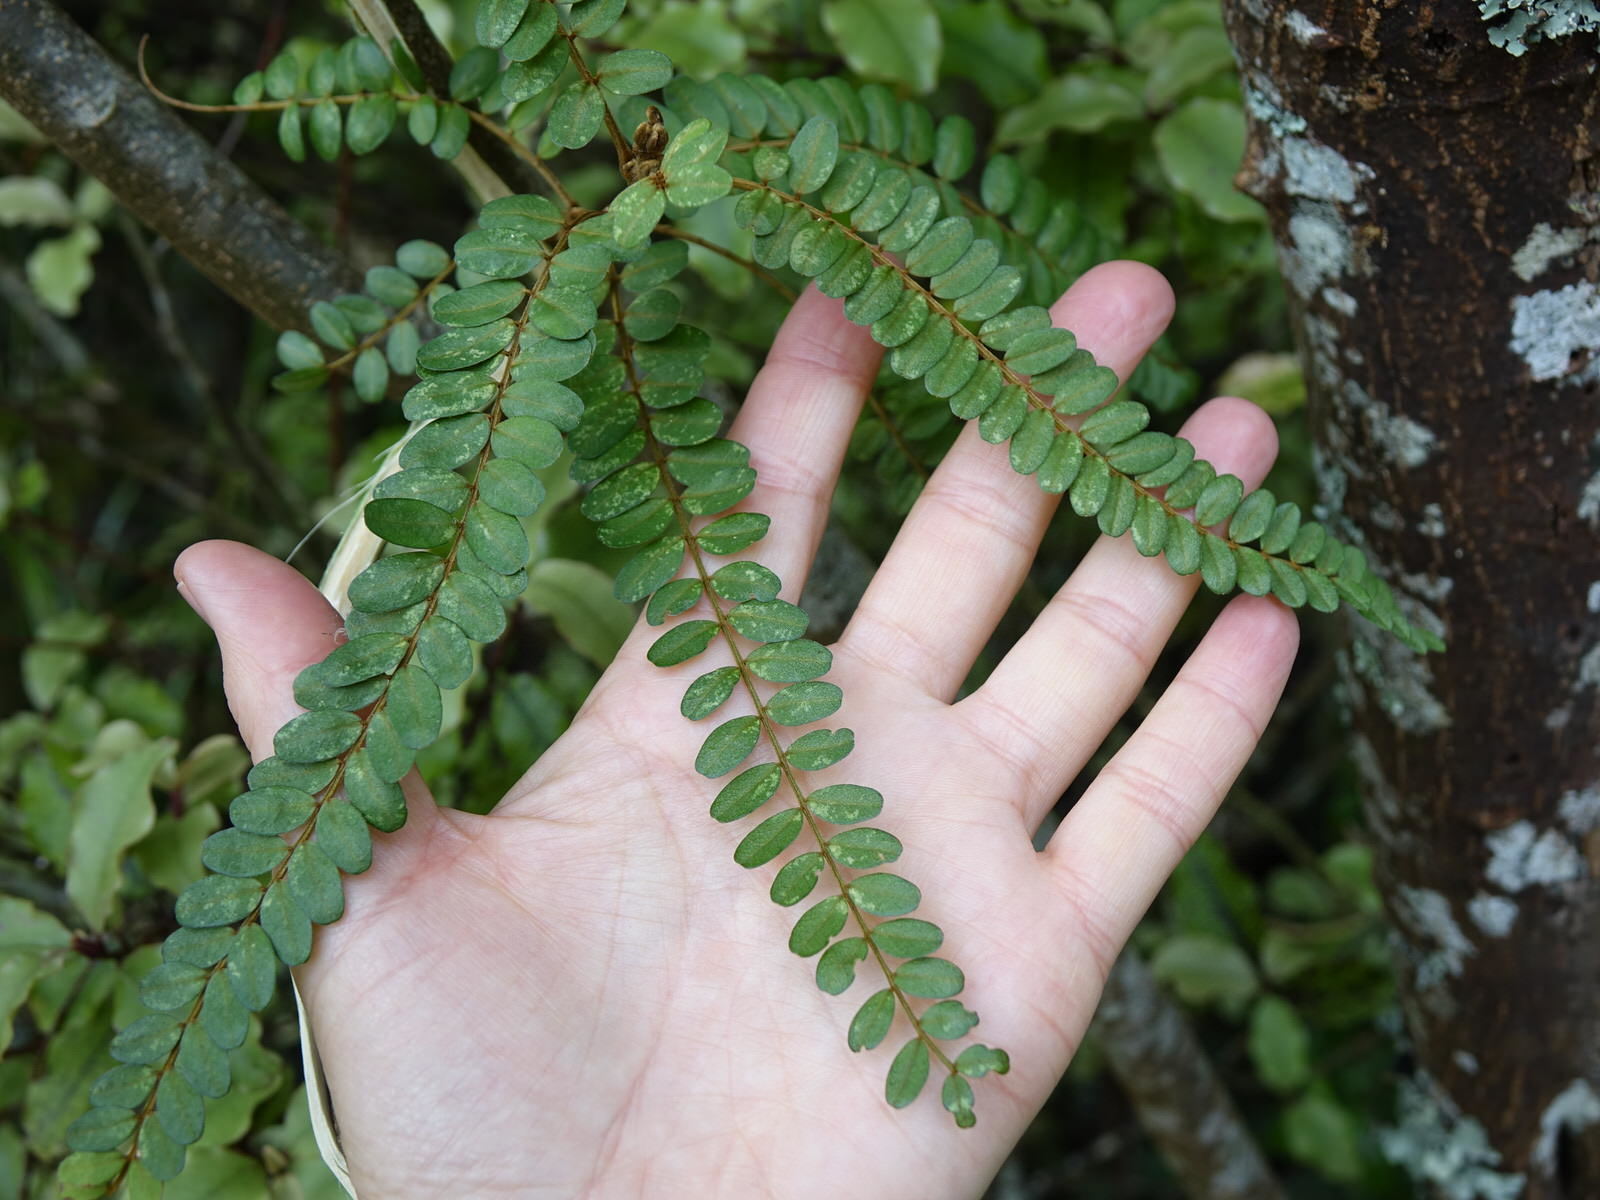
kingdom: Plantae
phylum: Tracheophyta
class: Magnoliopsida
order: Fabales
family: Fabaceae
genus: Sophora
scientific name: Sophora chathamica
